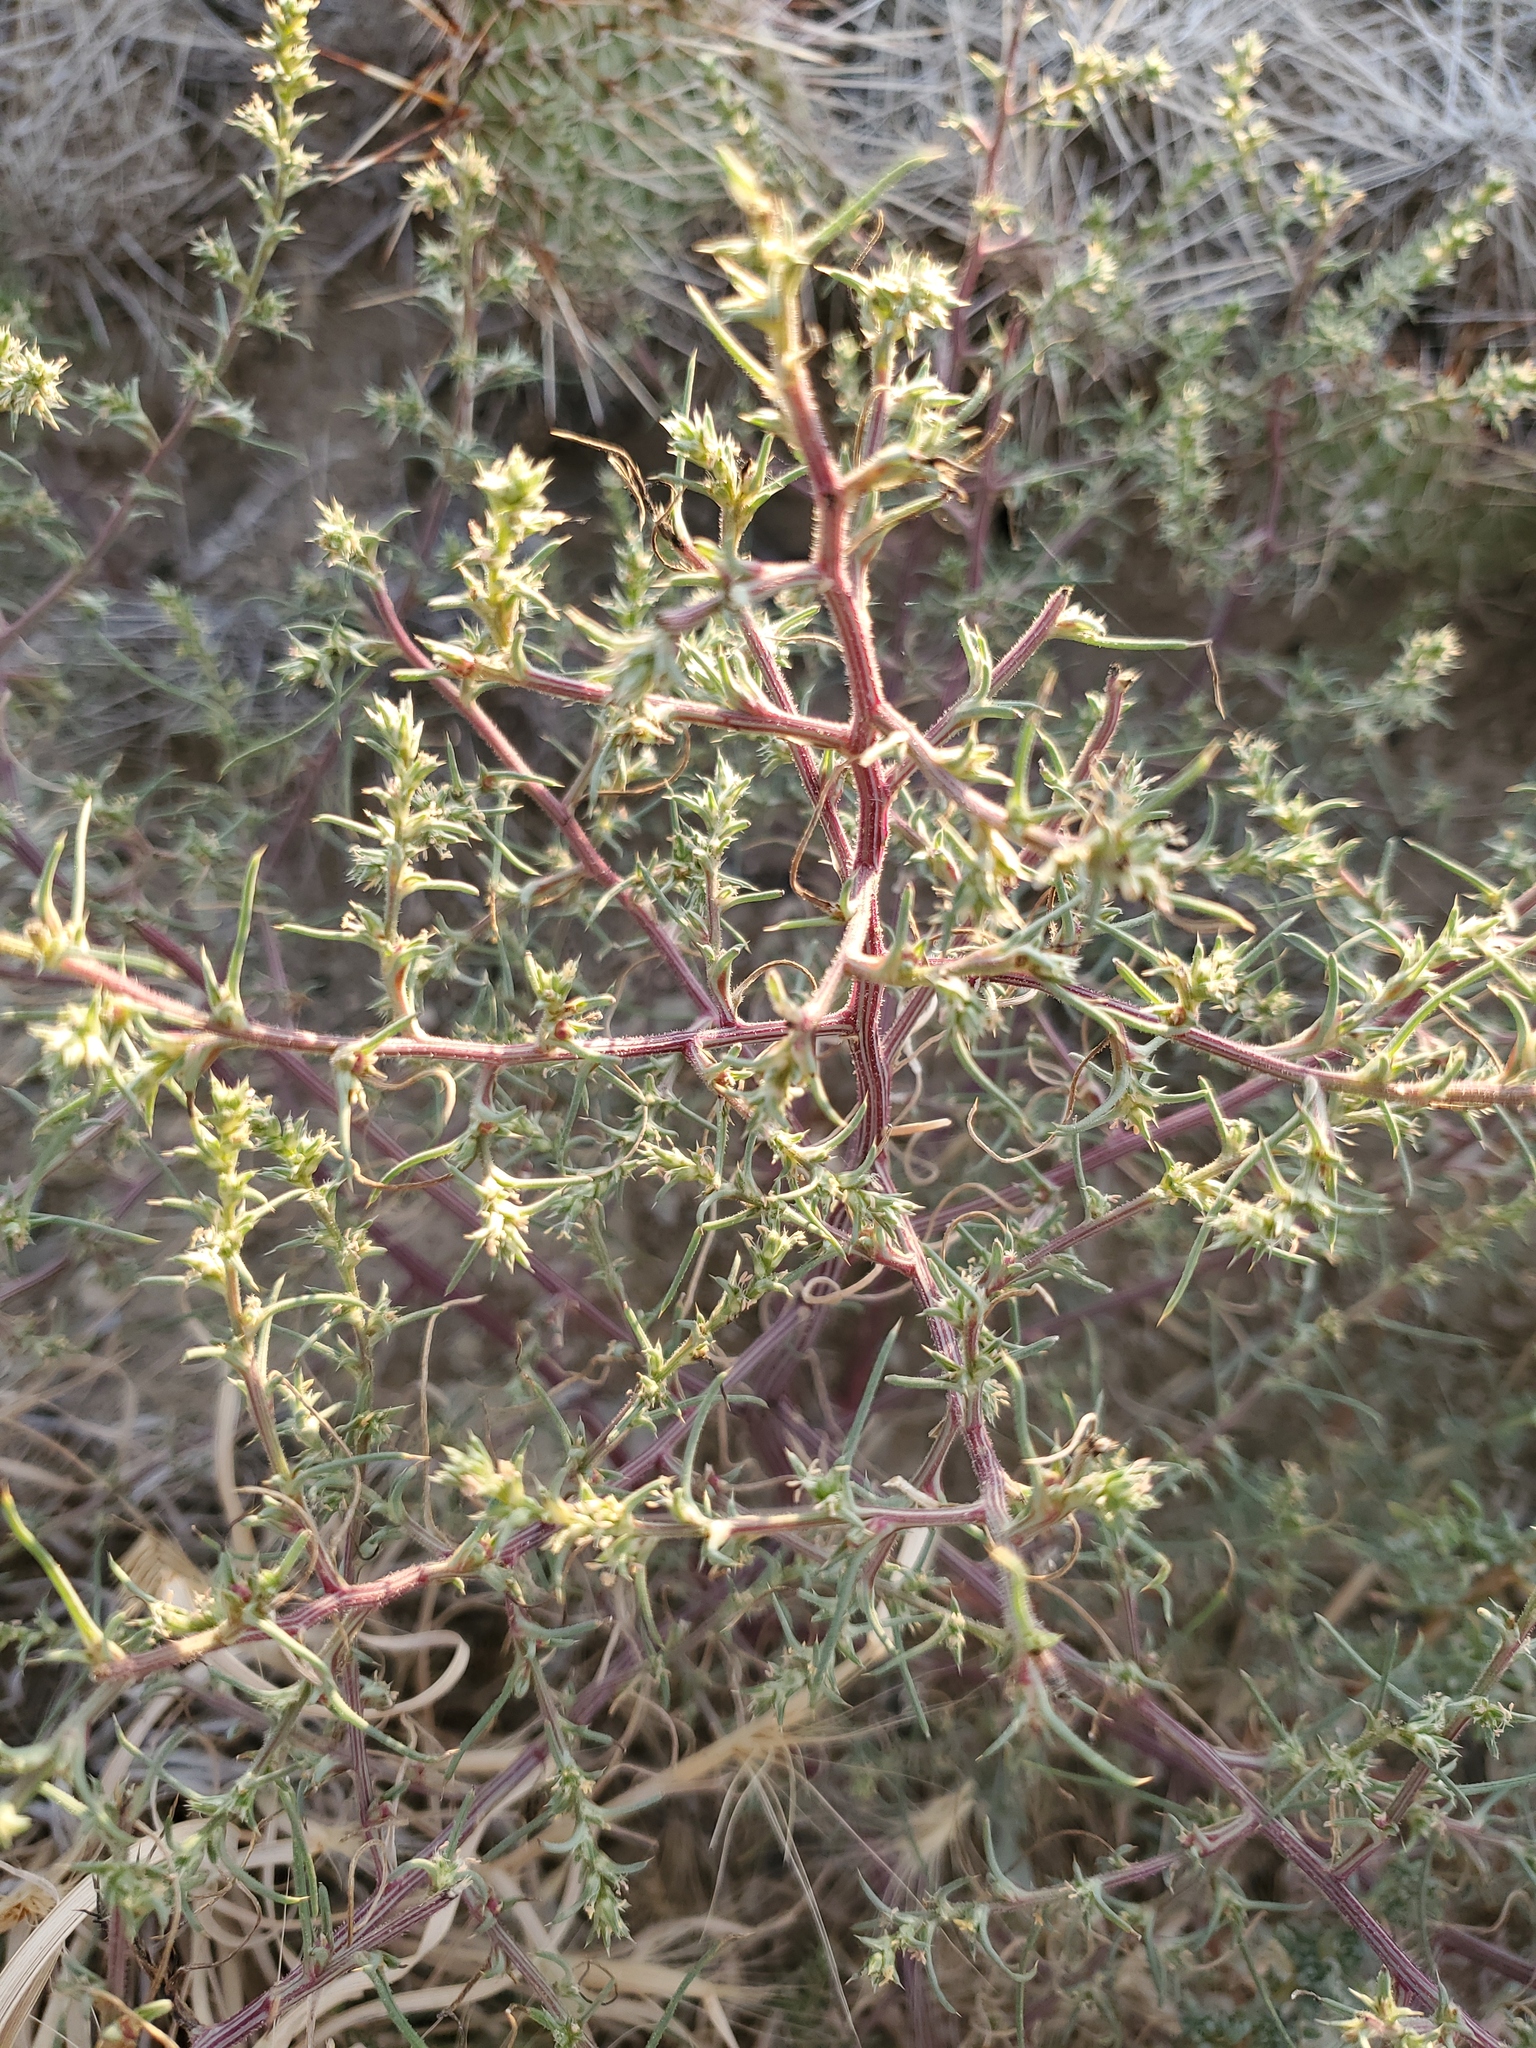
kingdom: Plantae
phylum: Tracheophyta
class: Magnoliopsida
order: Caryophyllales
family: Amaranthaceae
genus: Salsola
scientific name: Salsola tragus
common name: Prickly russian thistle
